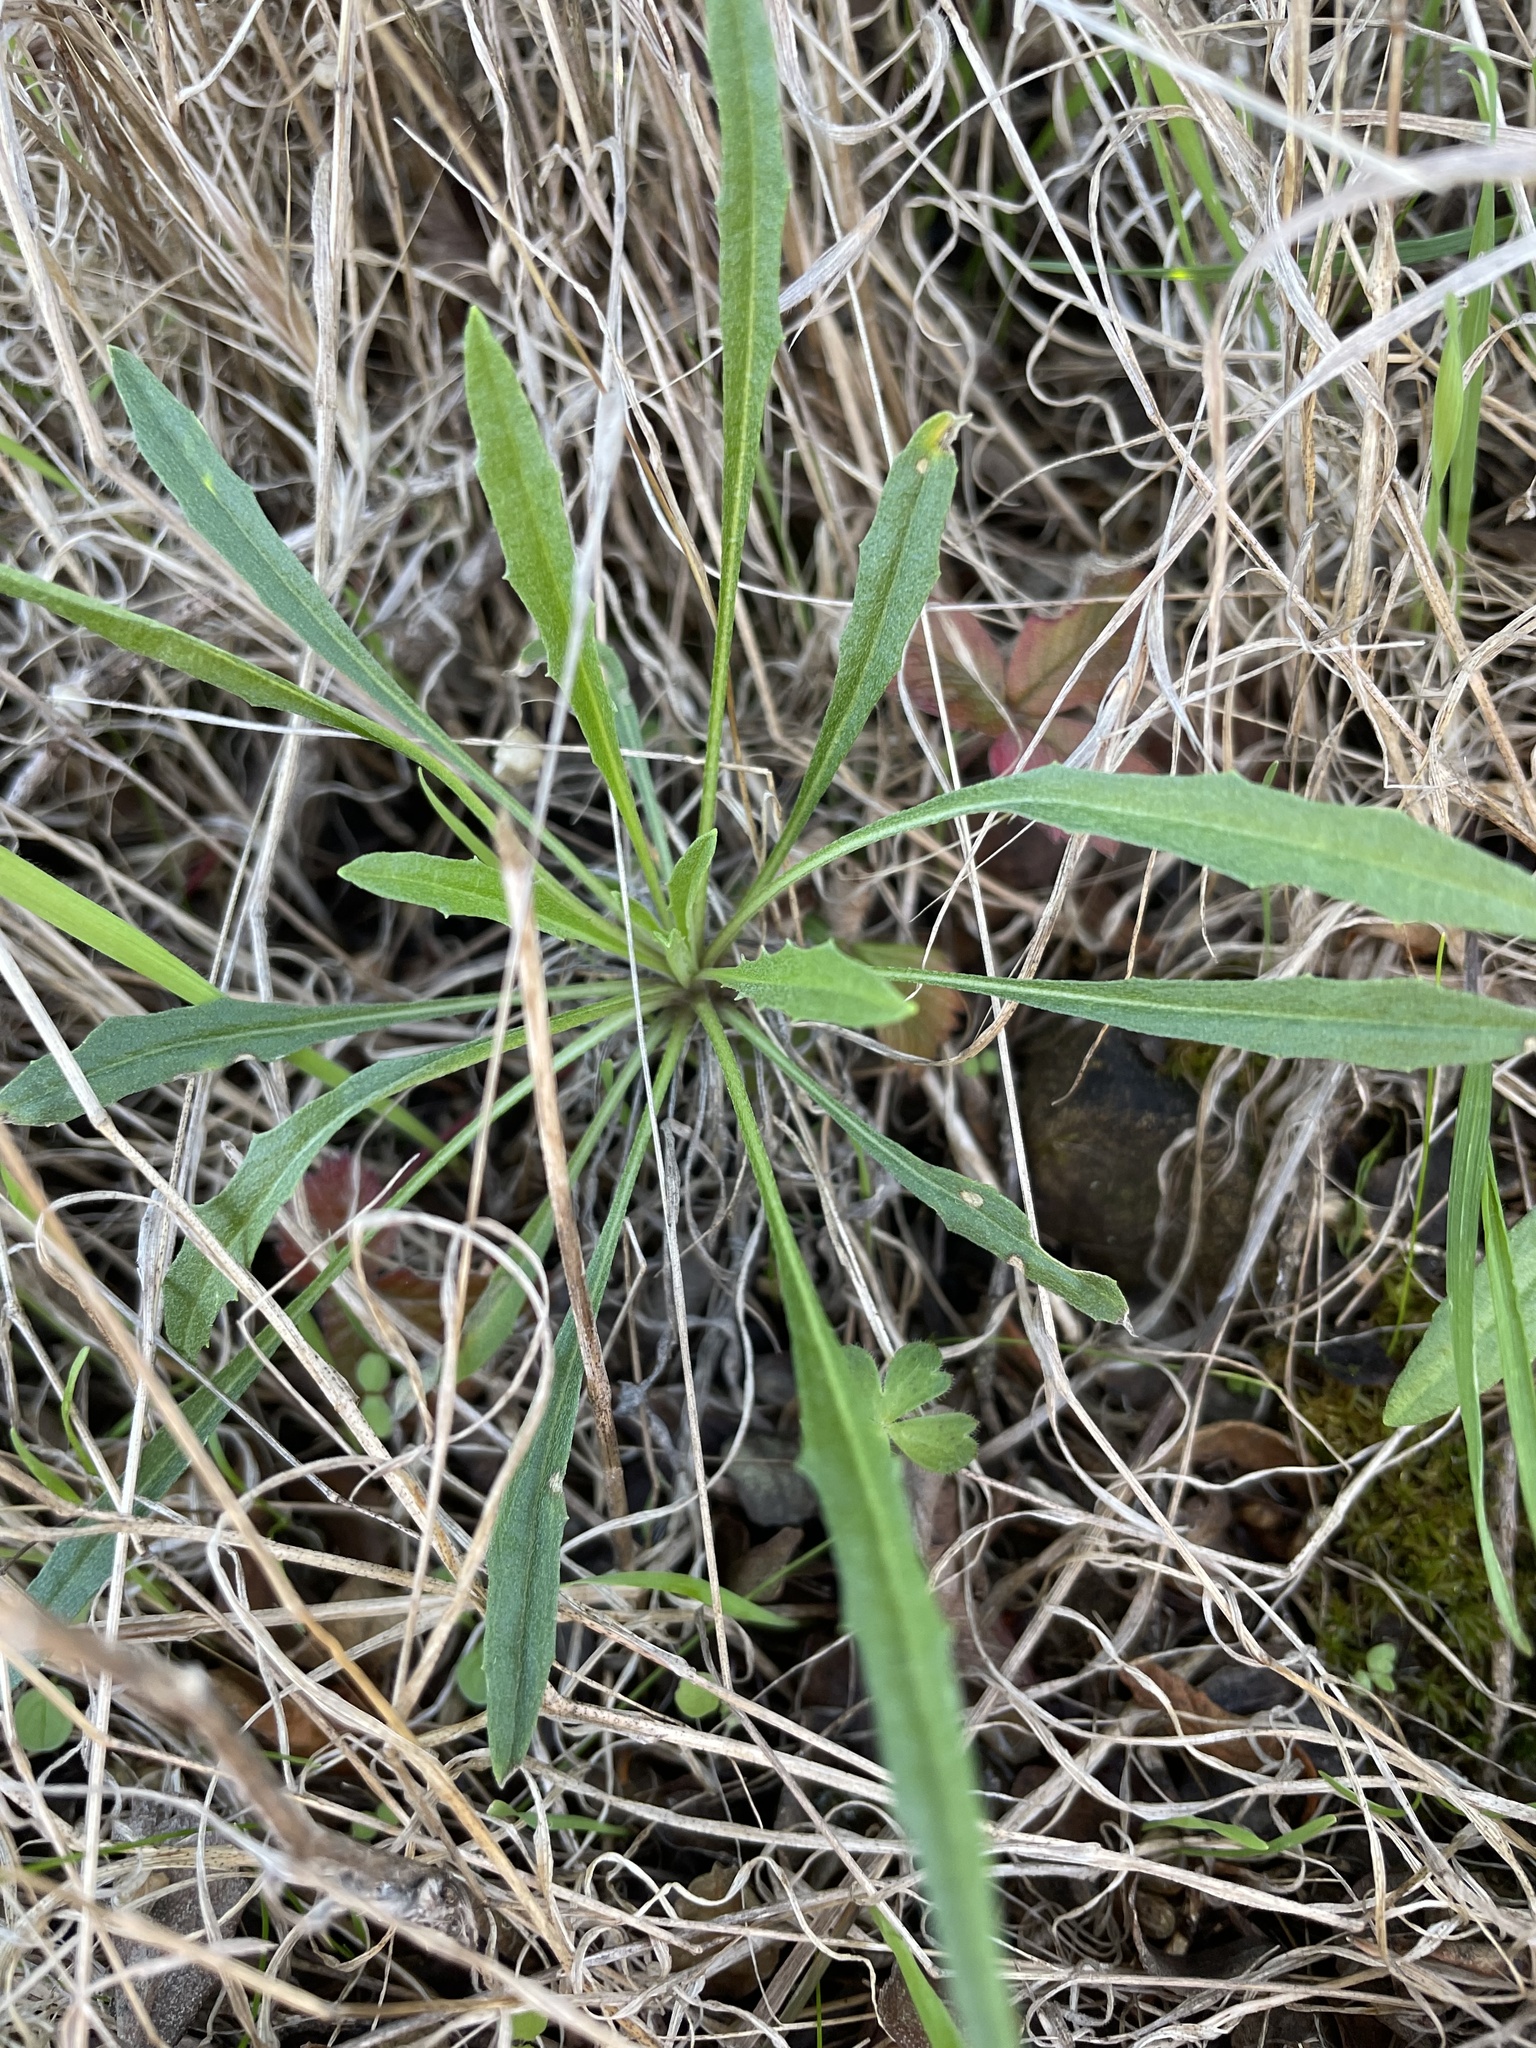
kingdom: Plantae
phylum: Tracheophyta
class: Magnoliopsida
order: Brassicales
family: Brassicaceae
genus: Erysimum
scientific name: Erysimum franciscanum
